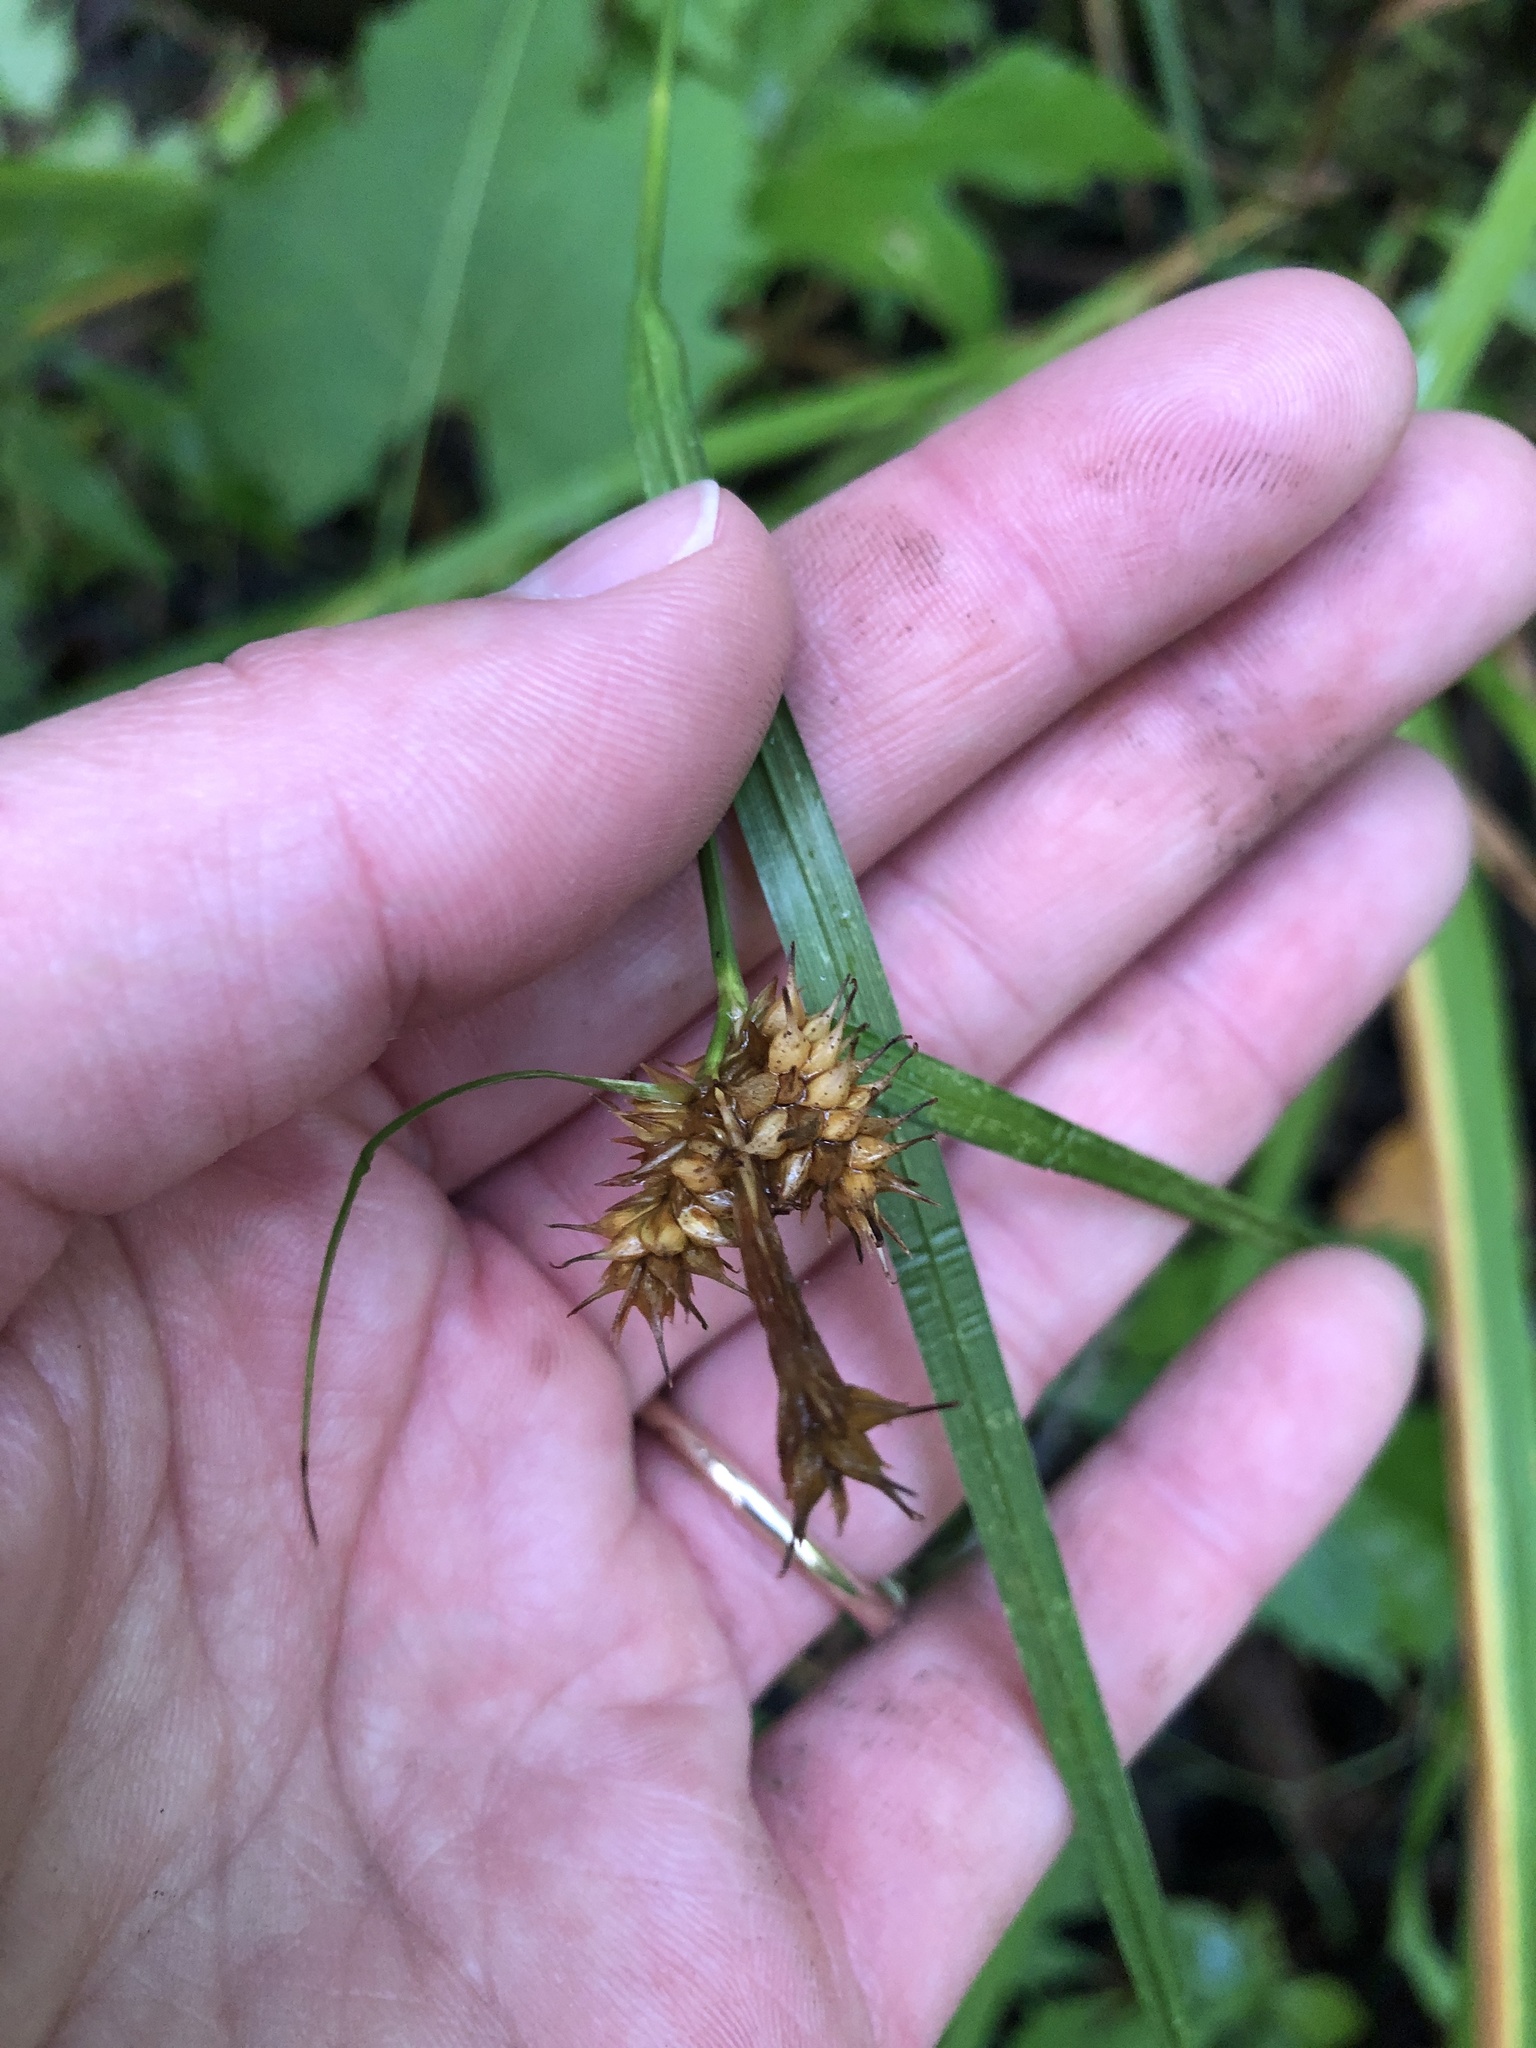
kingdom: Plantae
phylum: Tracheophyta
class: Liliopsida
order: Poales
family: Cyperaceae
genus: Carex
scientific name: Carex flava
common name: Large yellow-sedge
